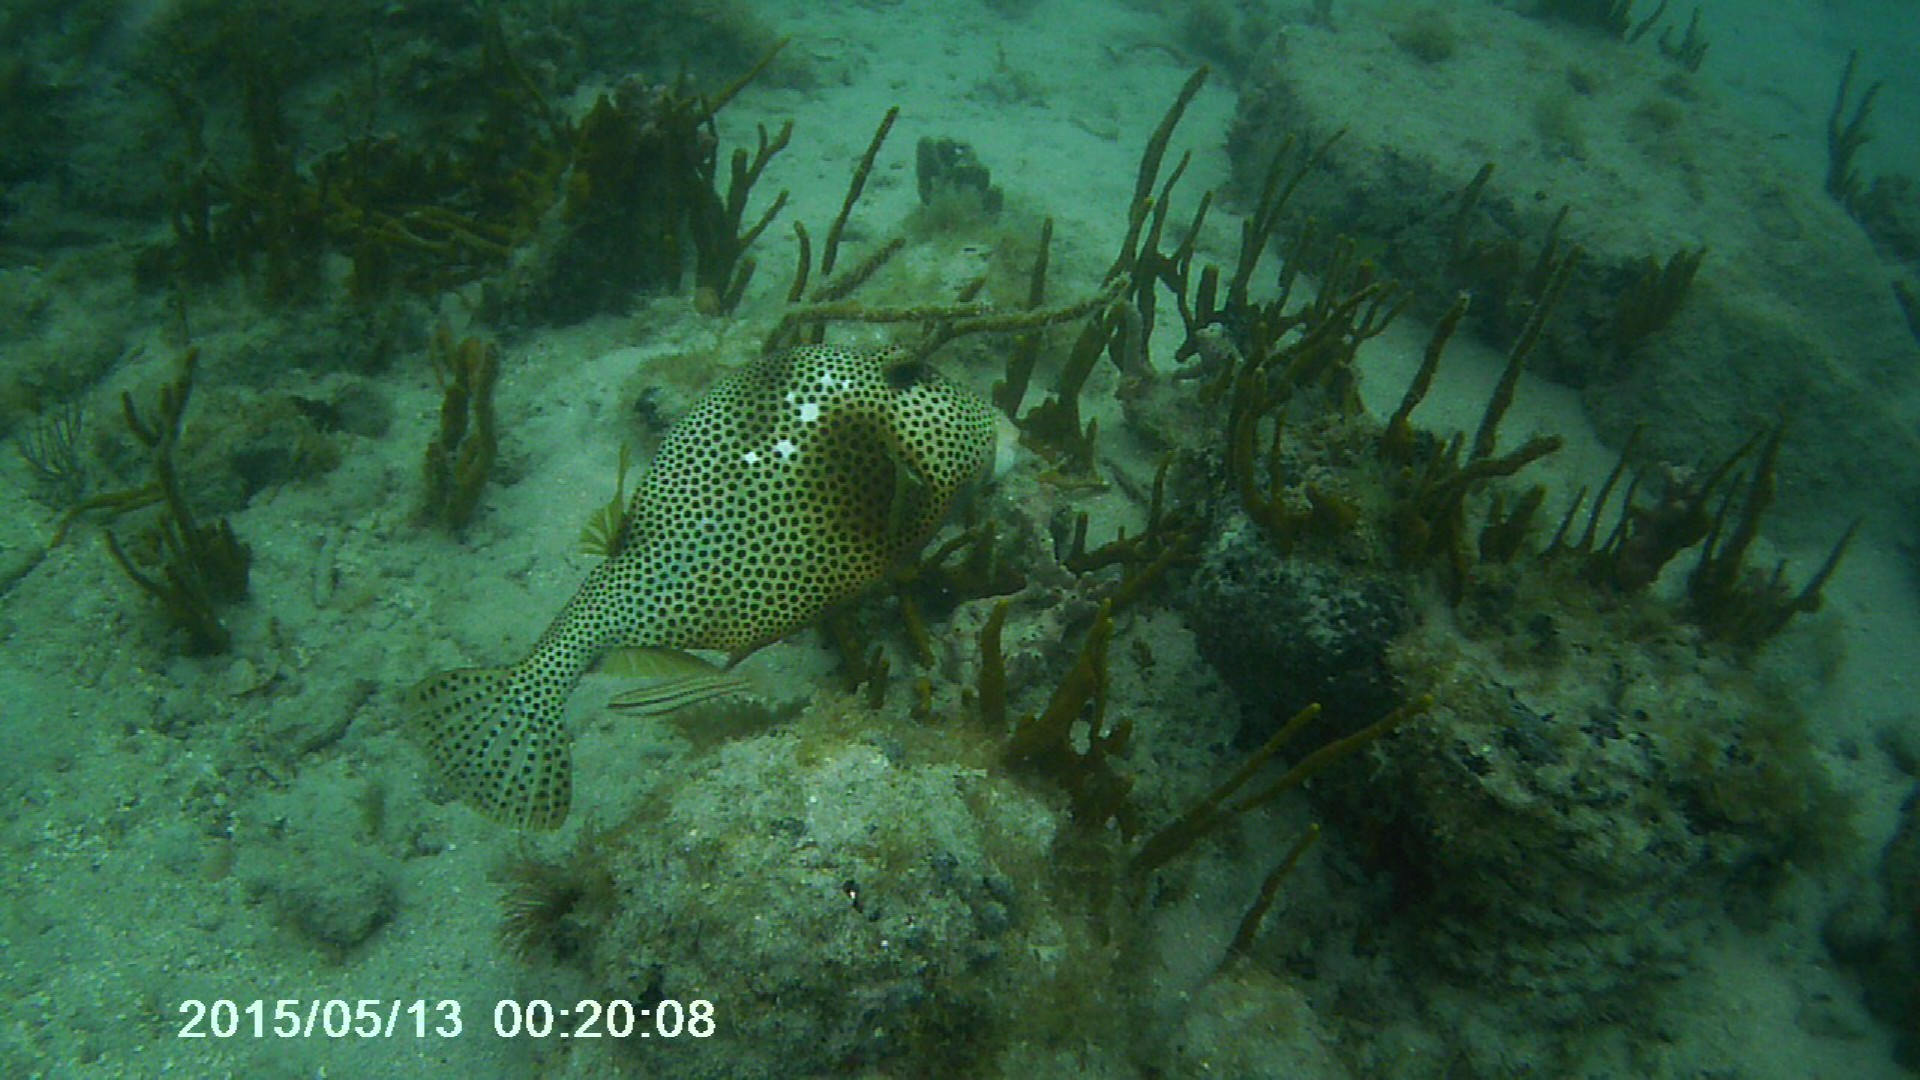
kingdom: Animalia
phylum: Chordata
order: Tetraodontiformes
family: Ostraciidae
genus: Lactophrys
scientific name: Lactophrys bicaudalis
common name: Spotted trunkfish
